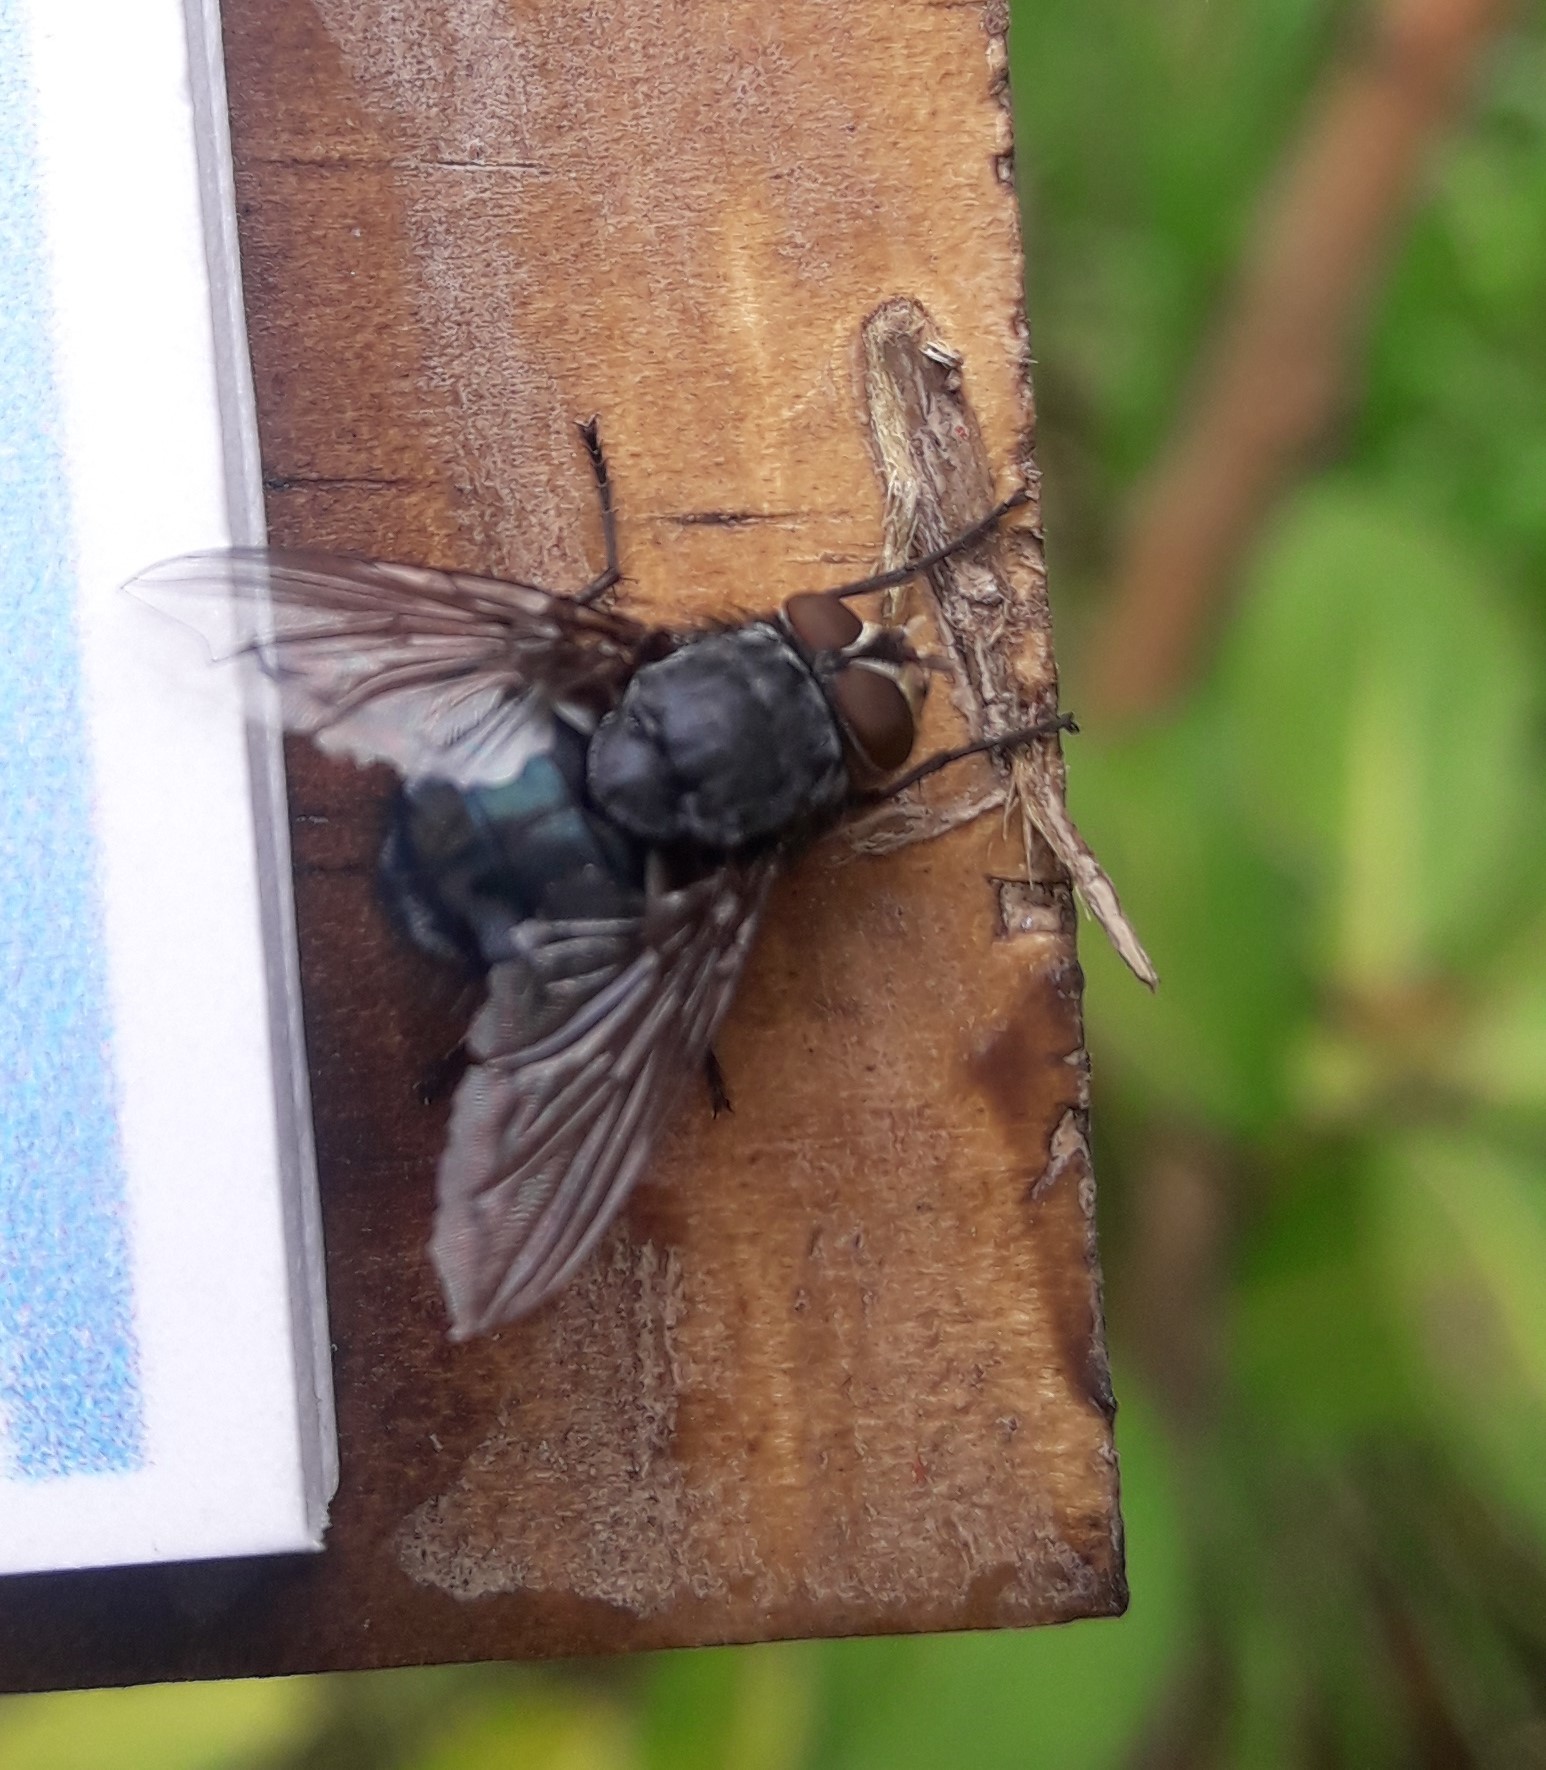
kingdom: Animalia
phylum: Arthropoda
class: Insecta
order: Diptera
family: Calliphoridae
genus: Calliphora
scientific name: Calliphora vicina
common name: Common blow flie
